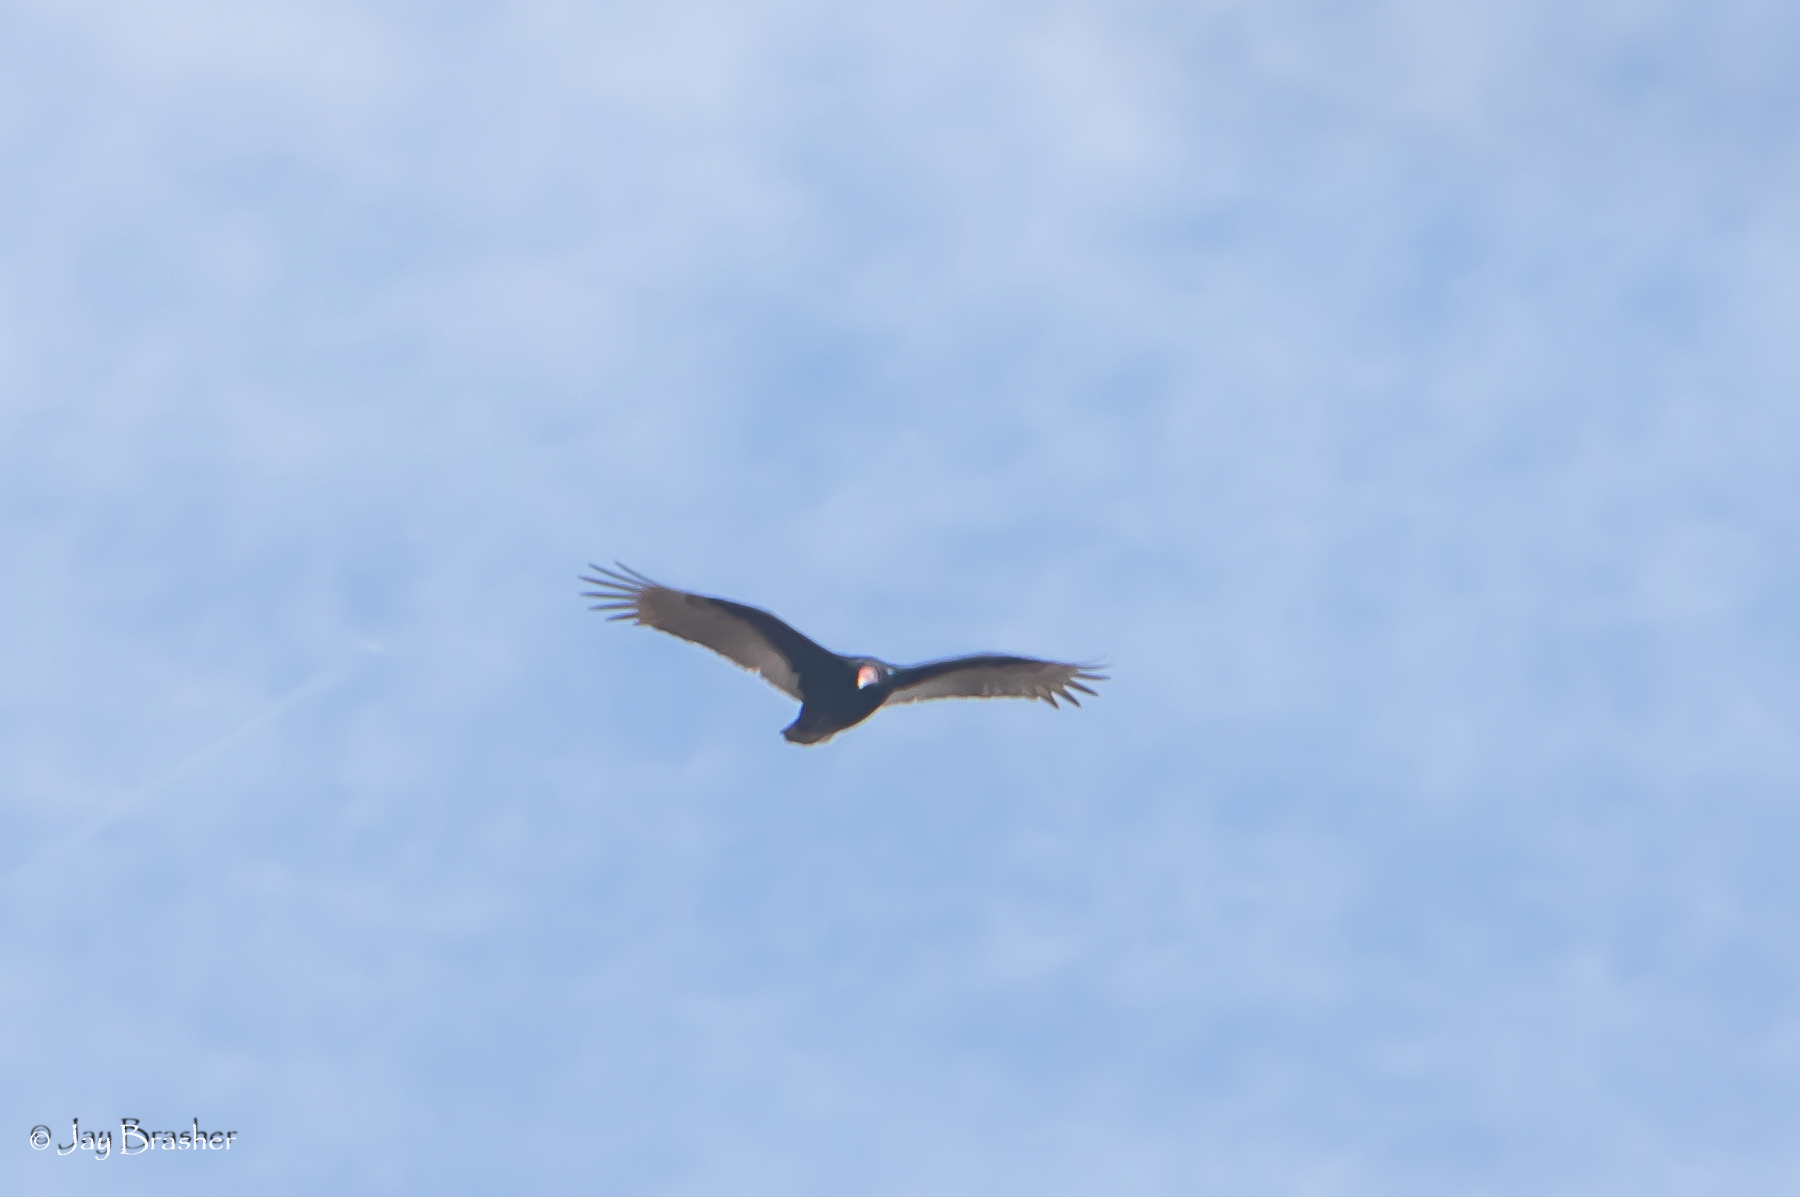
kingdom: Animalia
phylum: Chordata
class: Aves
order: Accipitriformes
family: Cathartidae
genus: Cathartes
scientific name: Cathartes aura
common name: Turkey vulture
